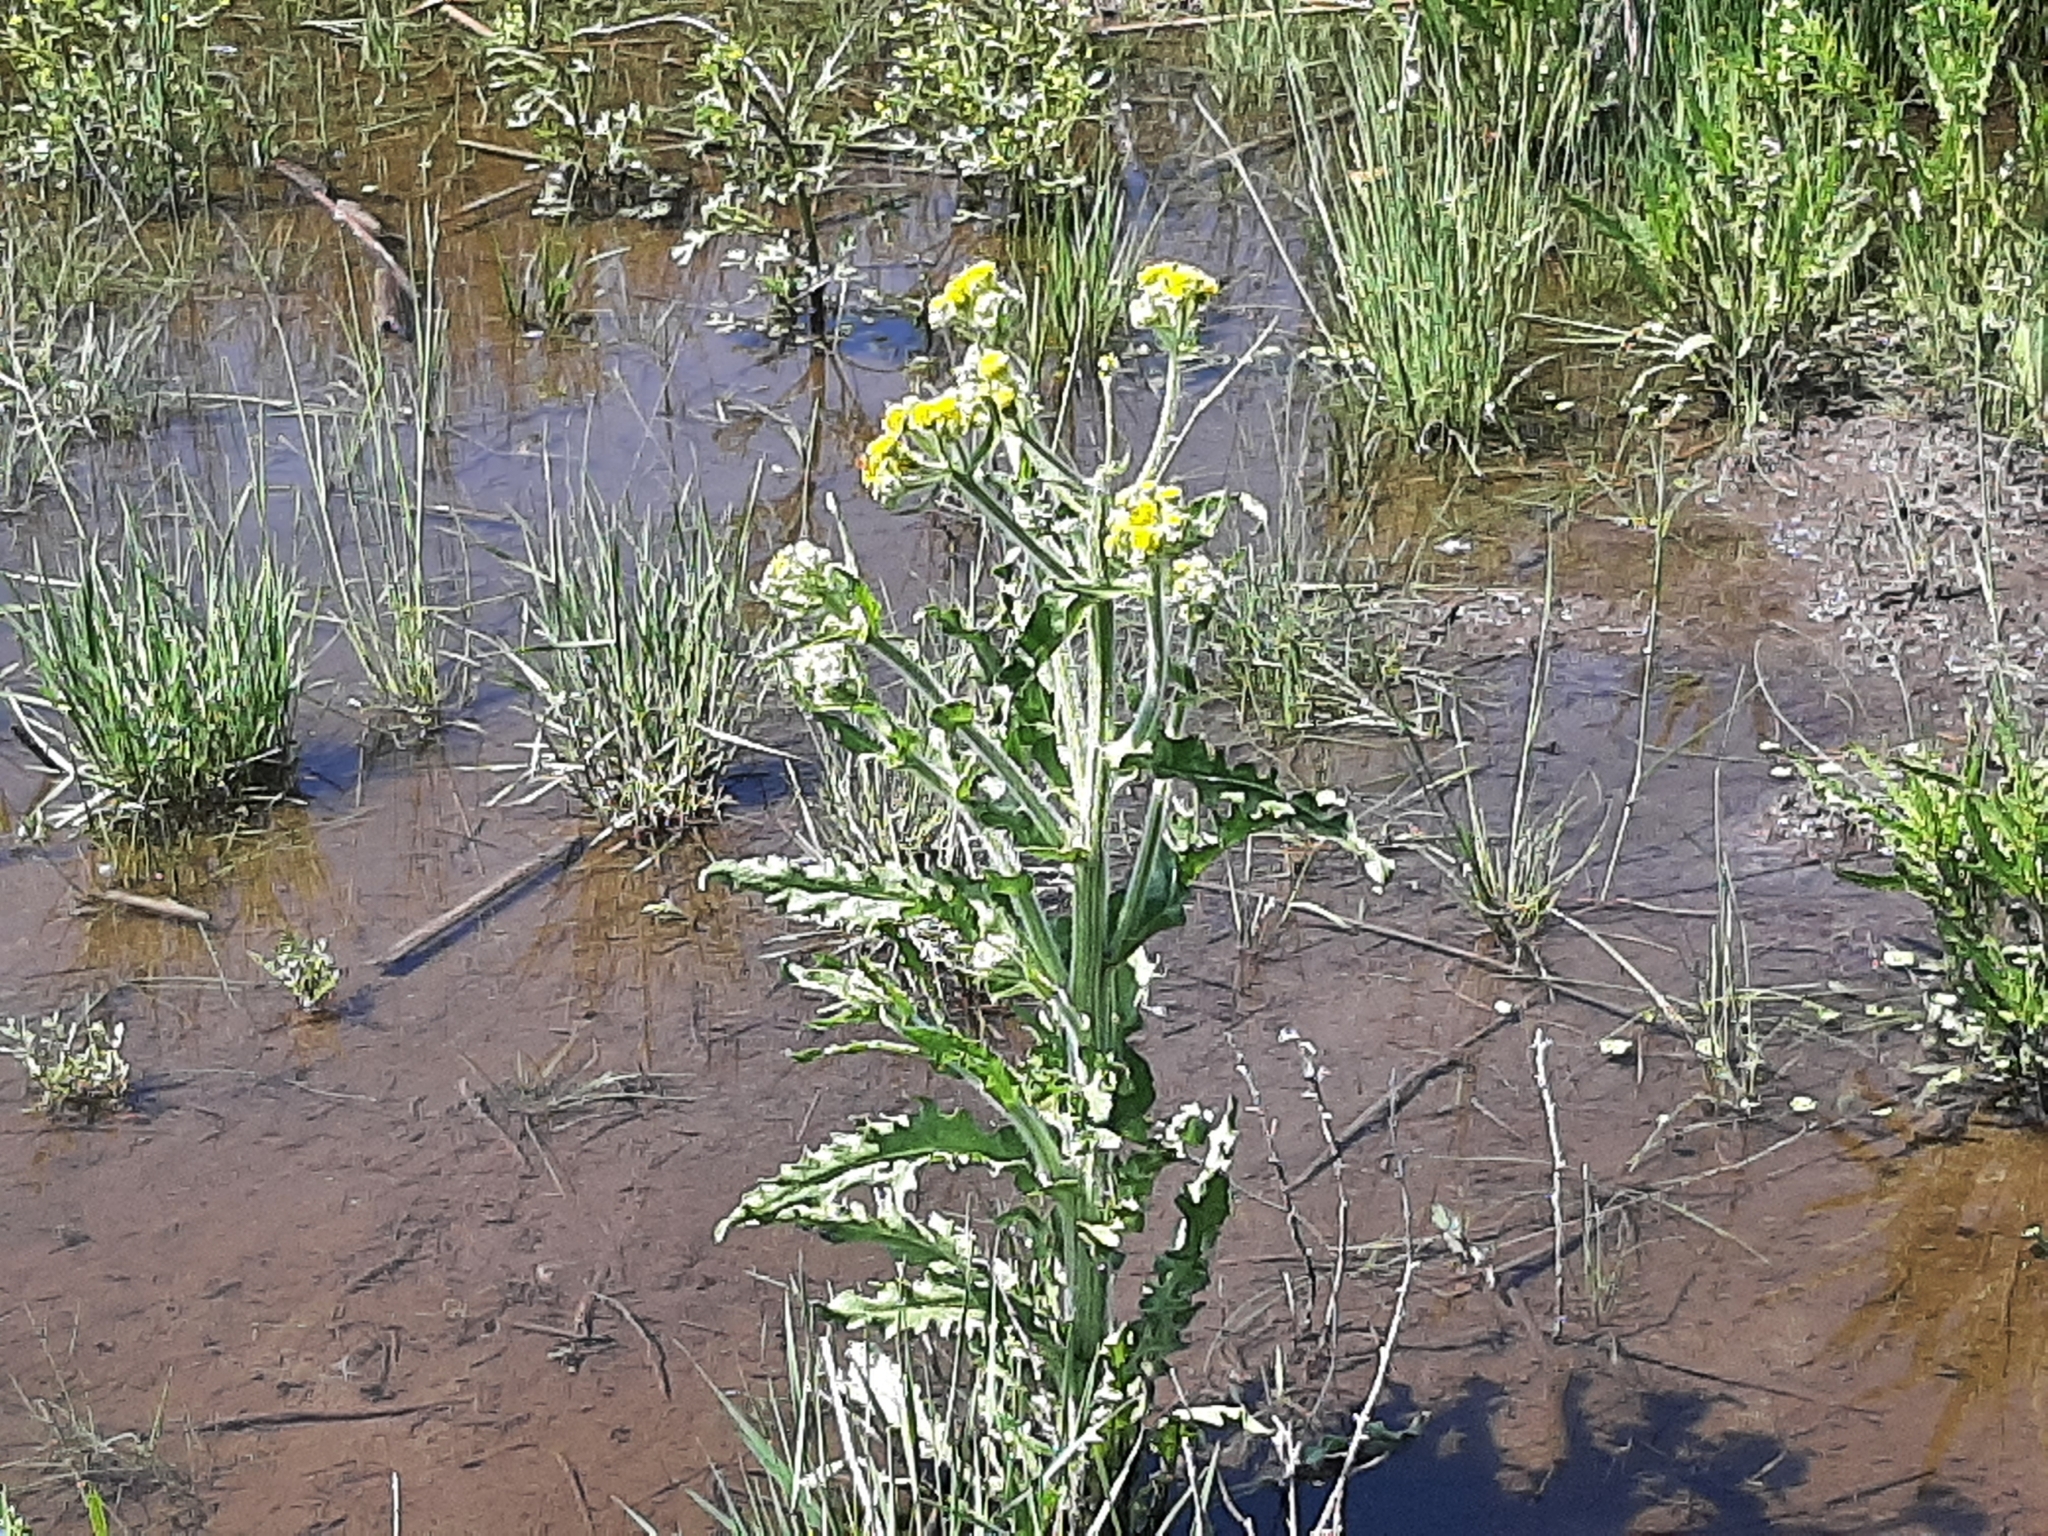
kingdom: Plantae
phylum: Tracheophyta
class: Magnoliopsida
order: Asterales
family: Asteraceae
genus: Tephroseris
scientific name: Tephroseris palustris
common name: Marsh fleawort
